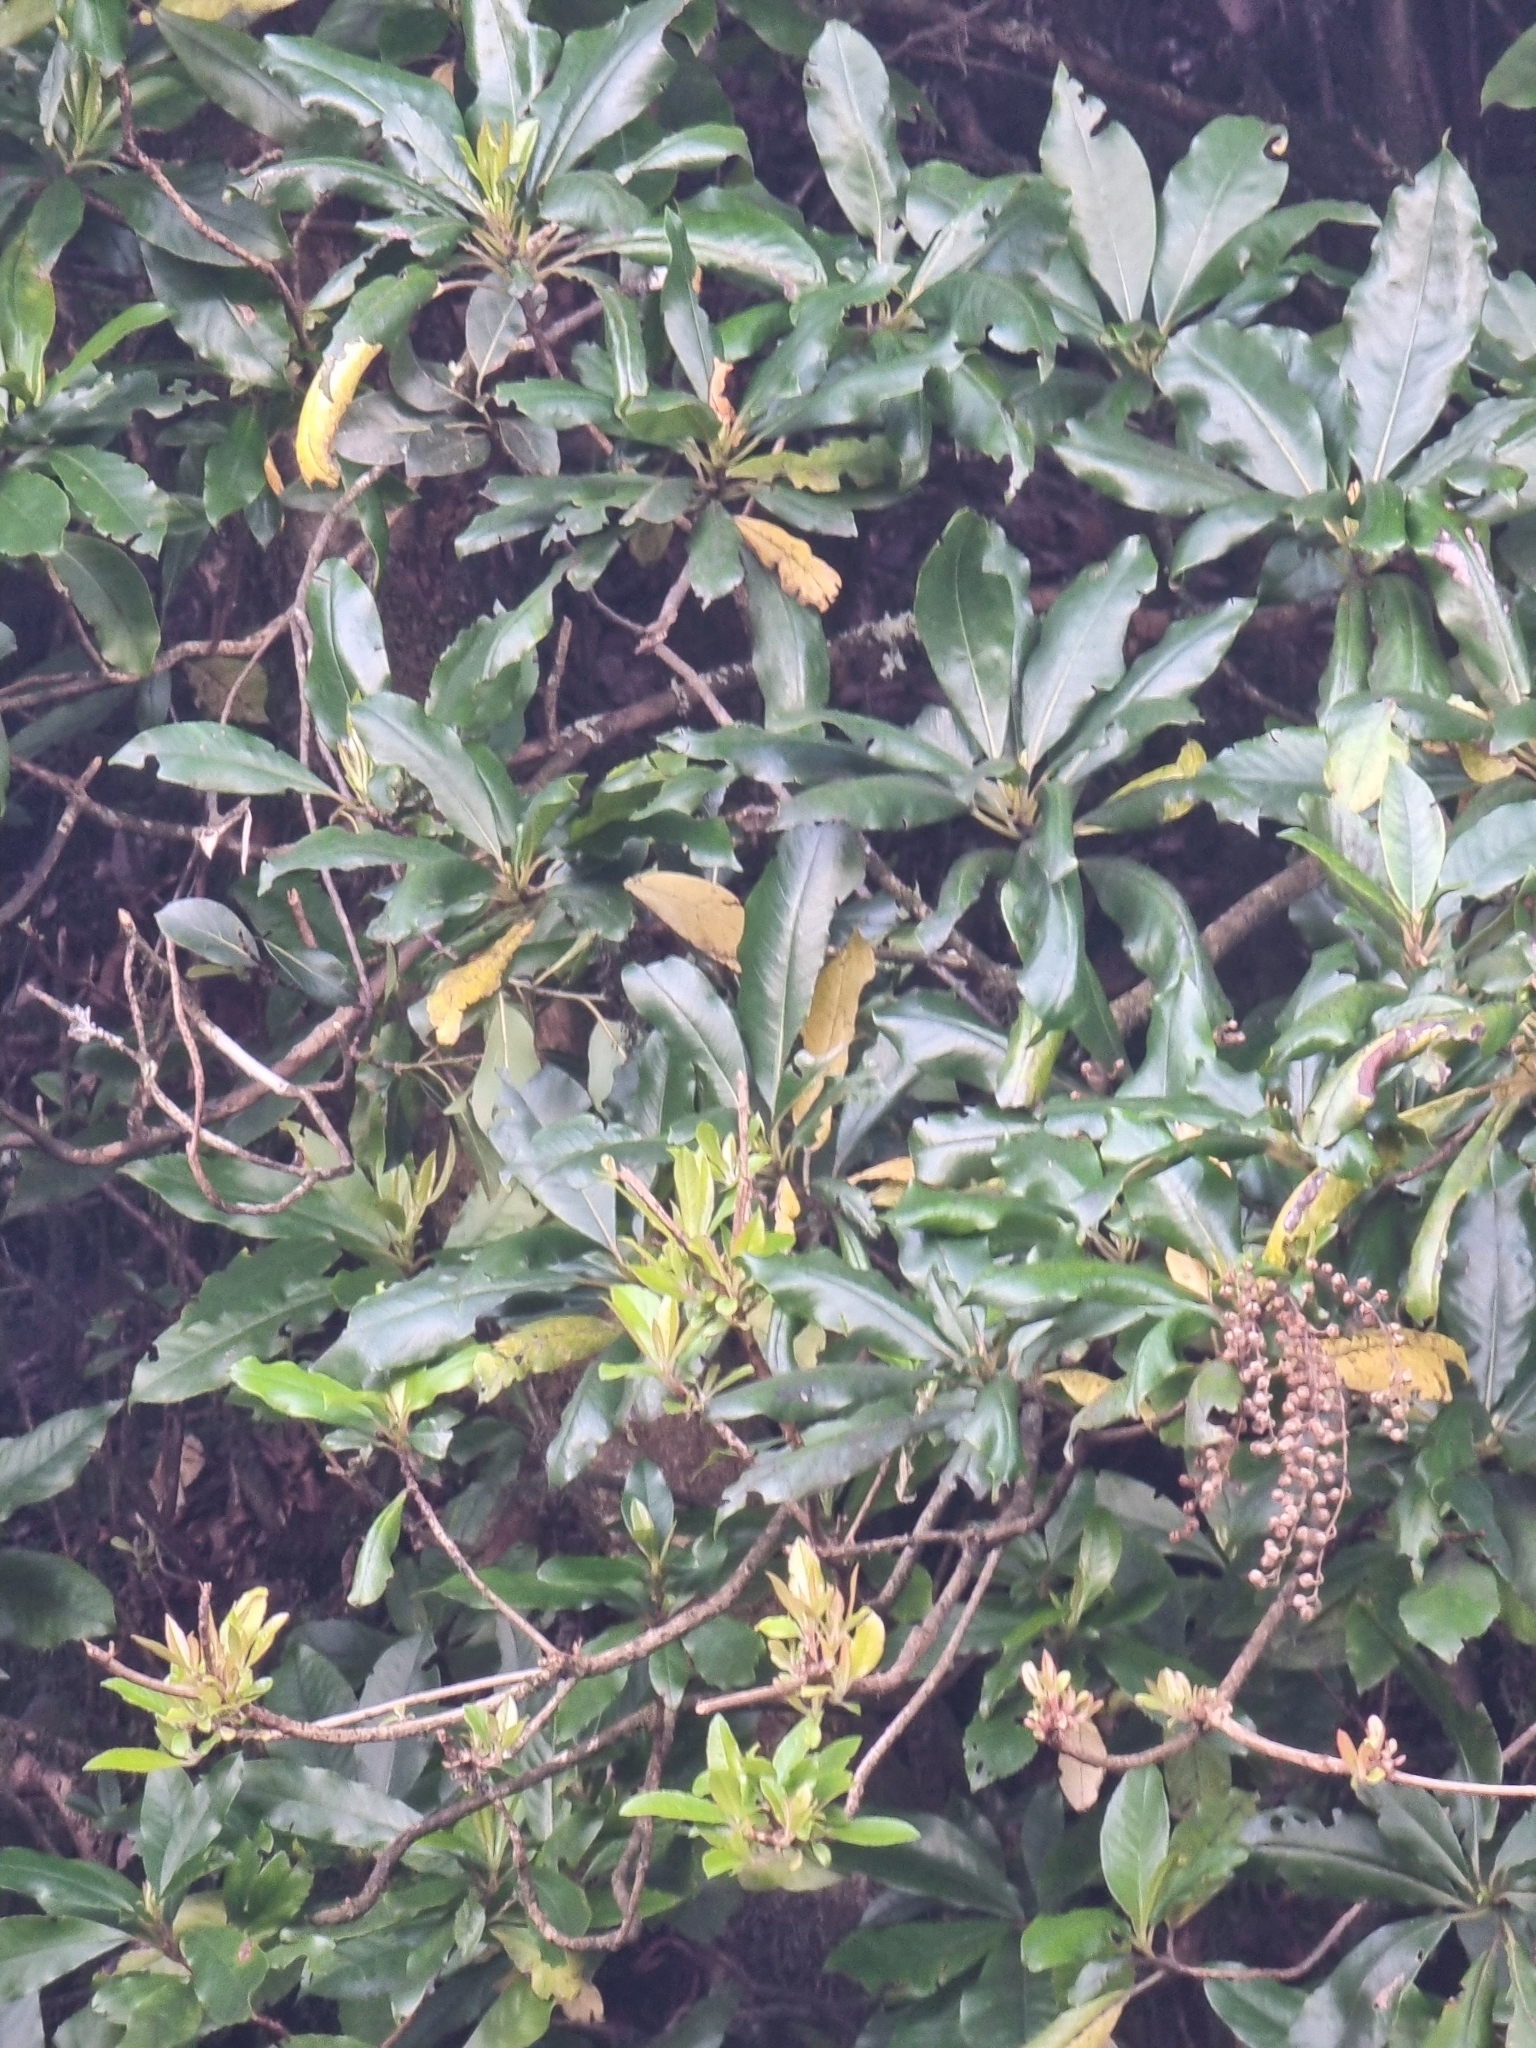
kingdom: Plantae
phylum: Tracheophyta
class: Magnoliopsida
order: Ericales
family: Clethraceae
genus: Clethra
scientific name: Clethra arborea
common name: Lily-of-the-valley-tree
